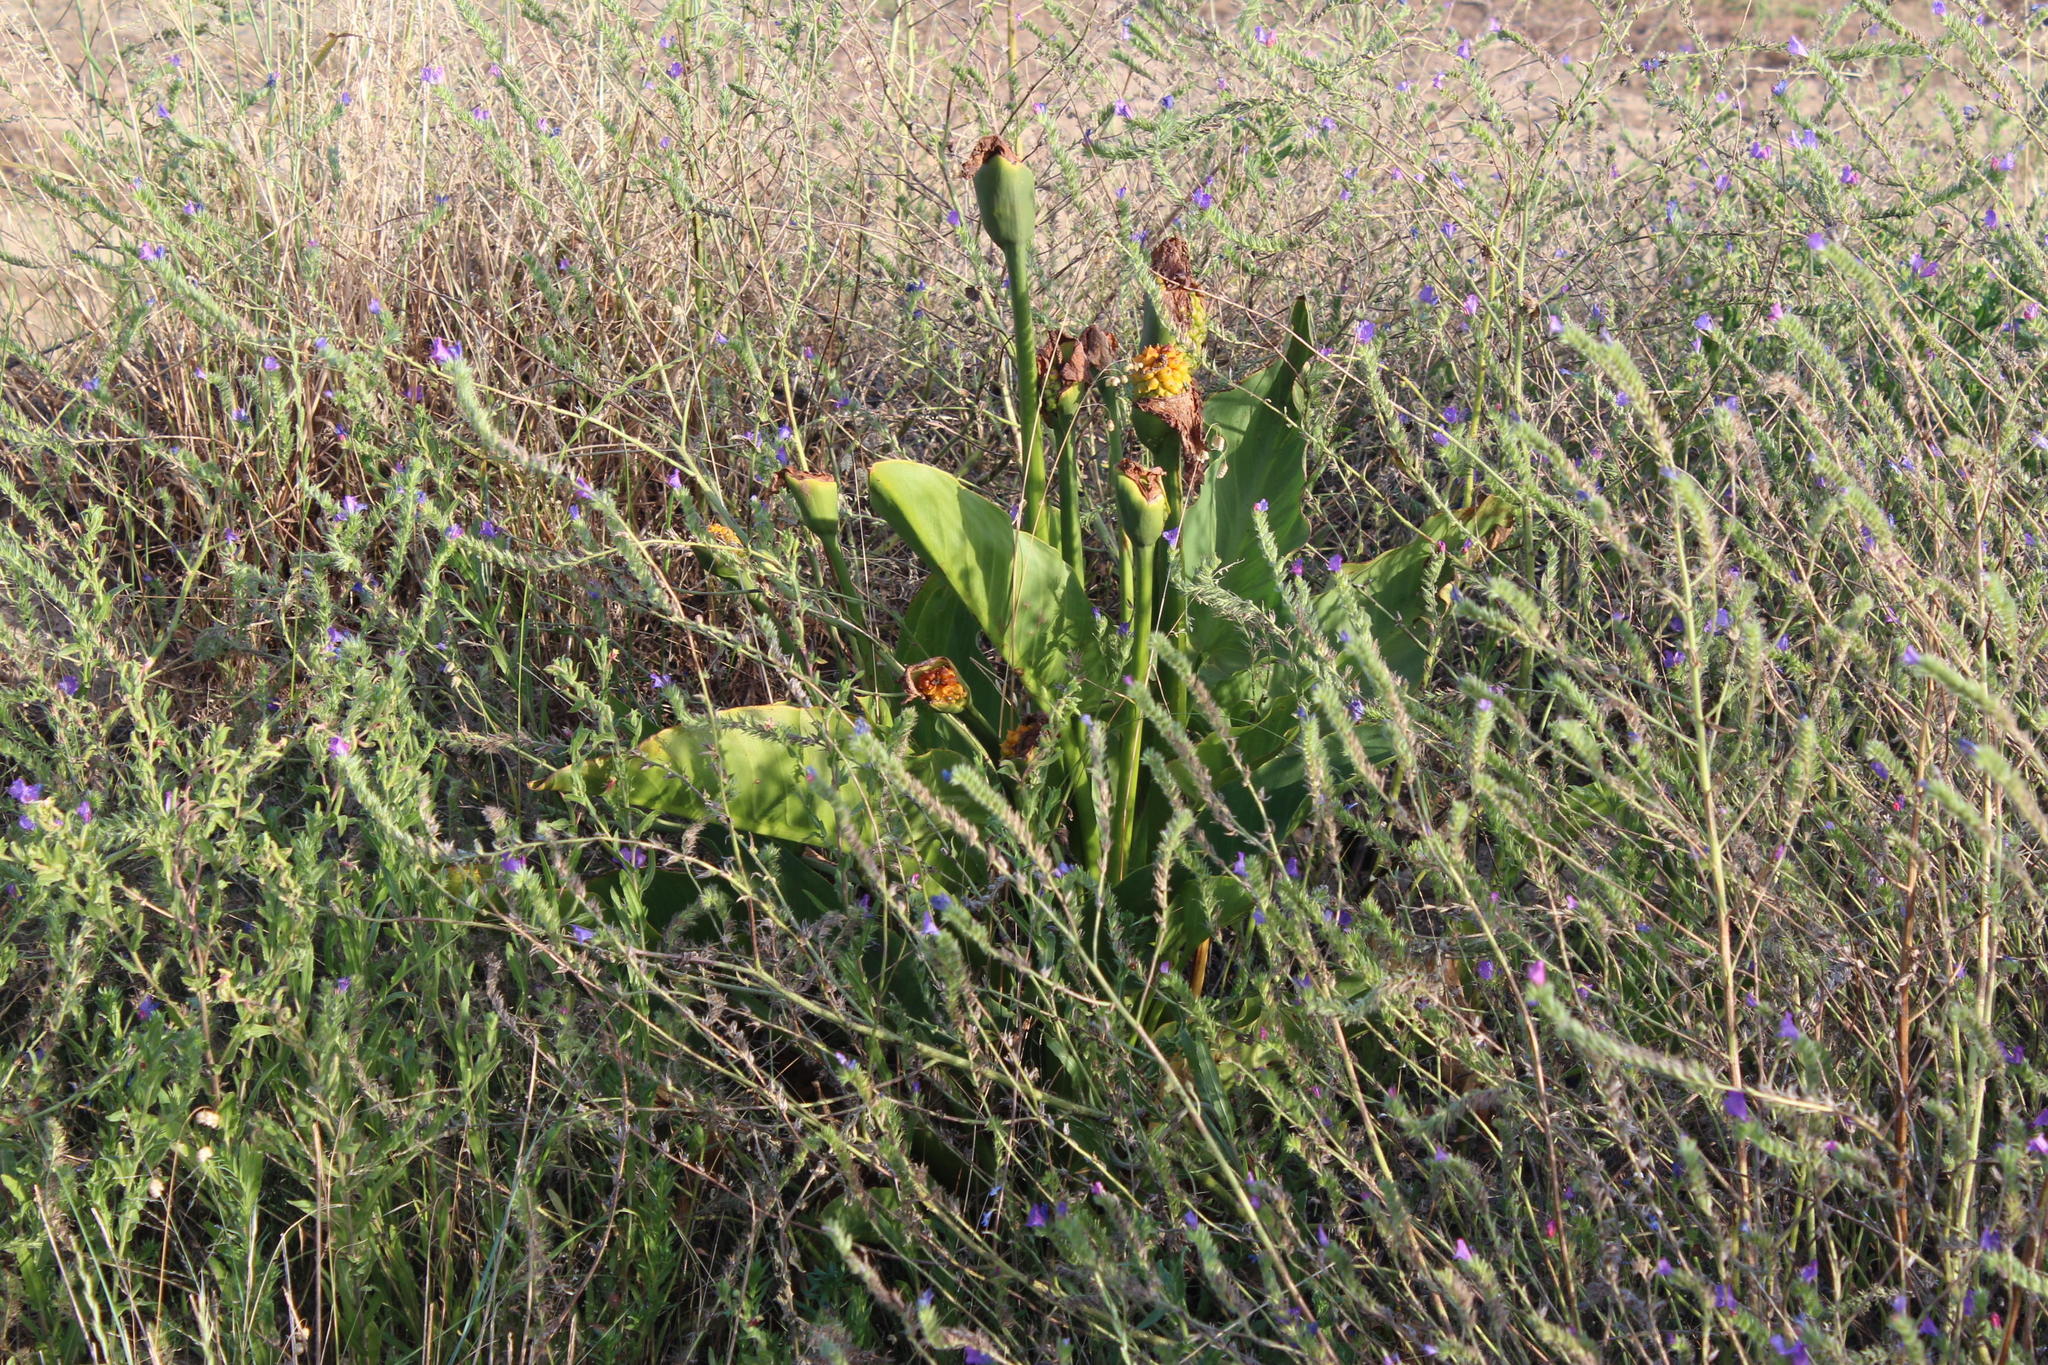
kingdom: Plantae
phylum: Tracheophyta
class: Liliopsida
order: Alismatales
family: Araceae
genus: Zantedeschia
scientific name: Zantedeschia aethiopica
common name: Altar-lily
